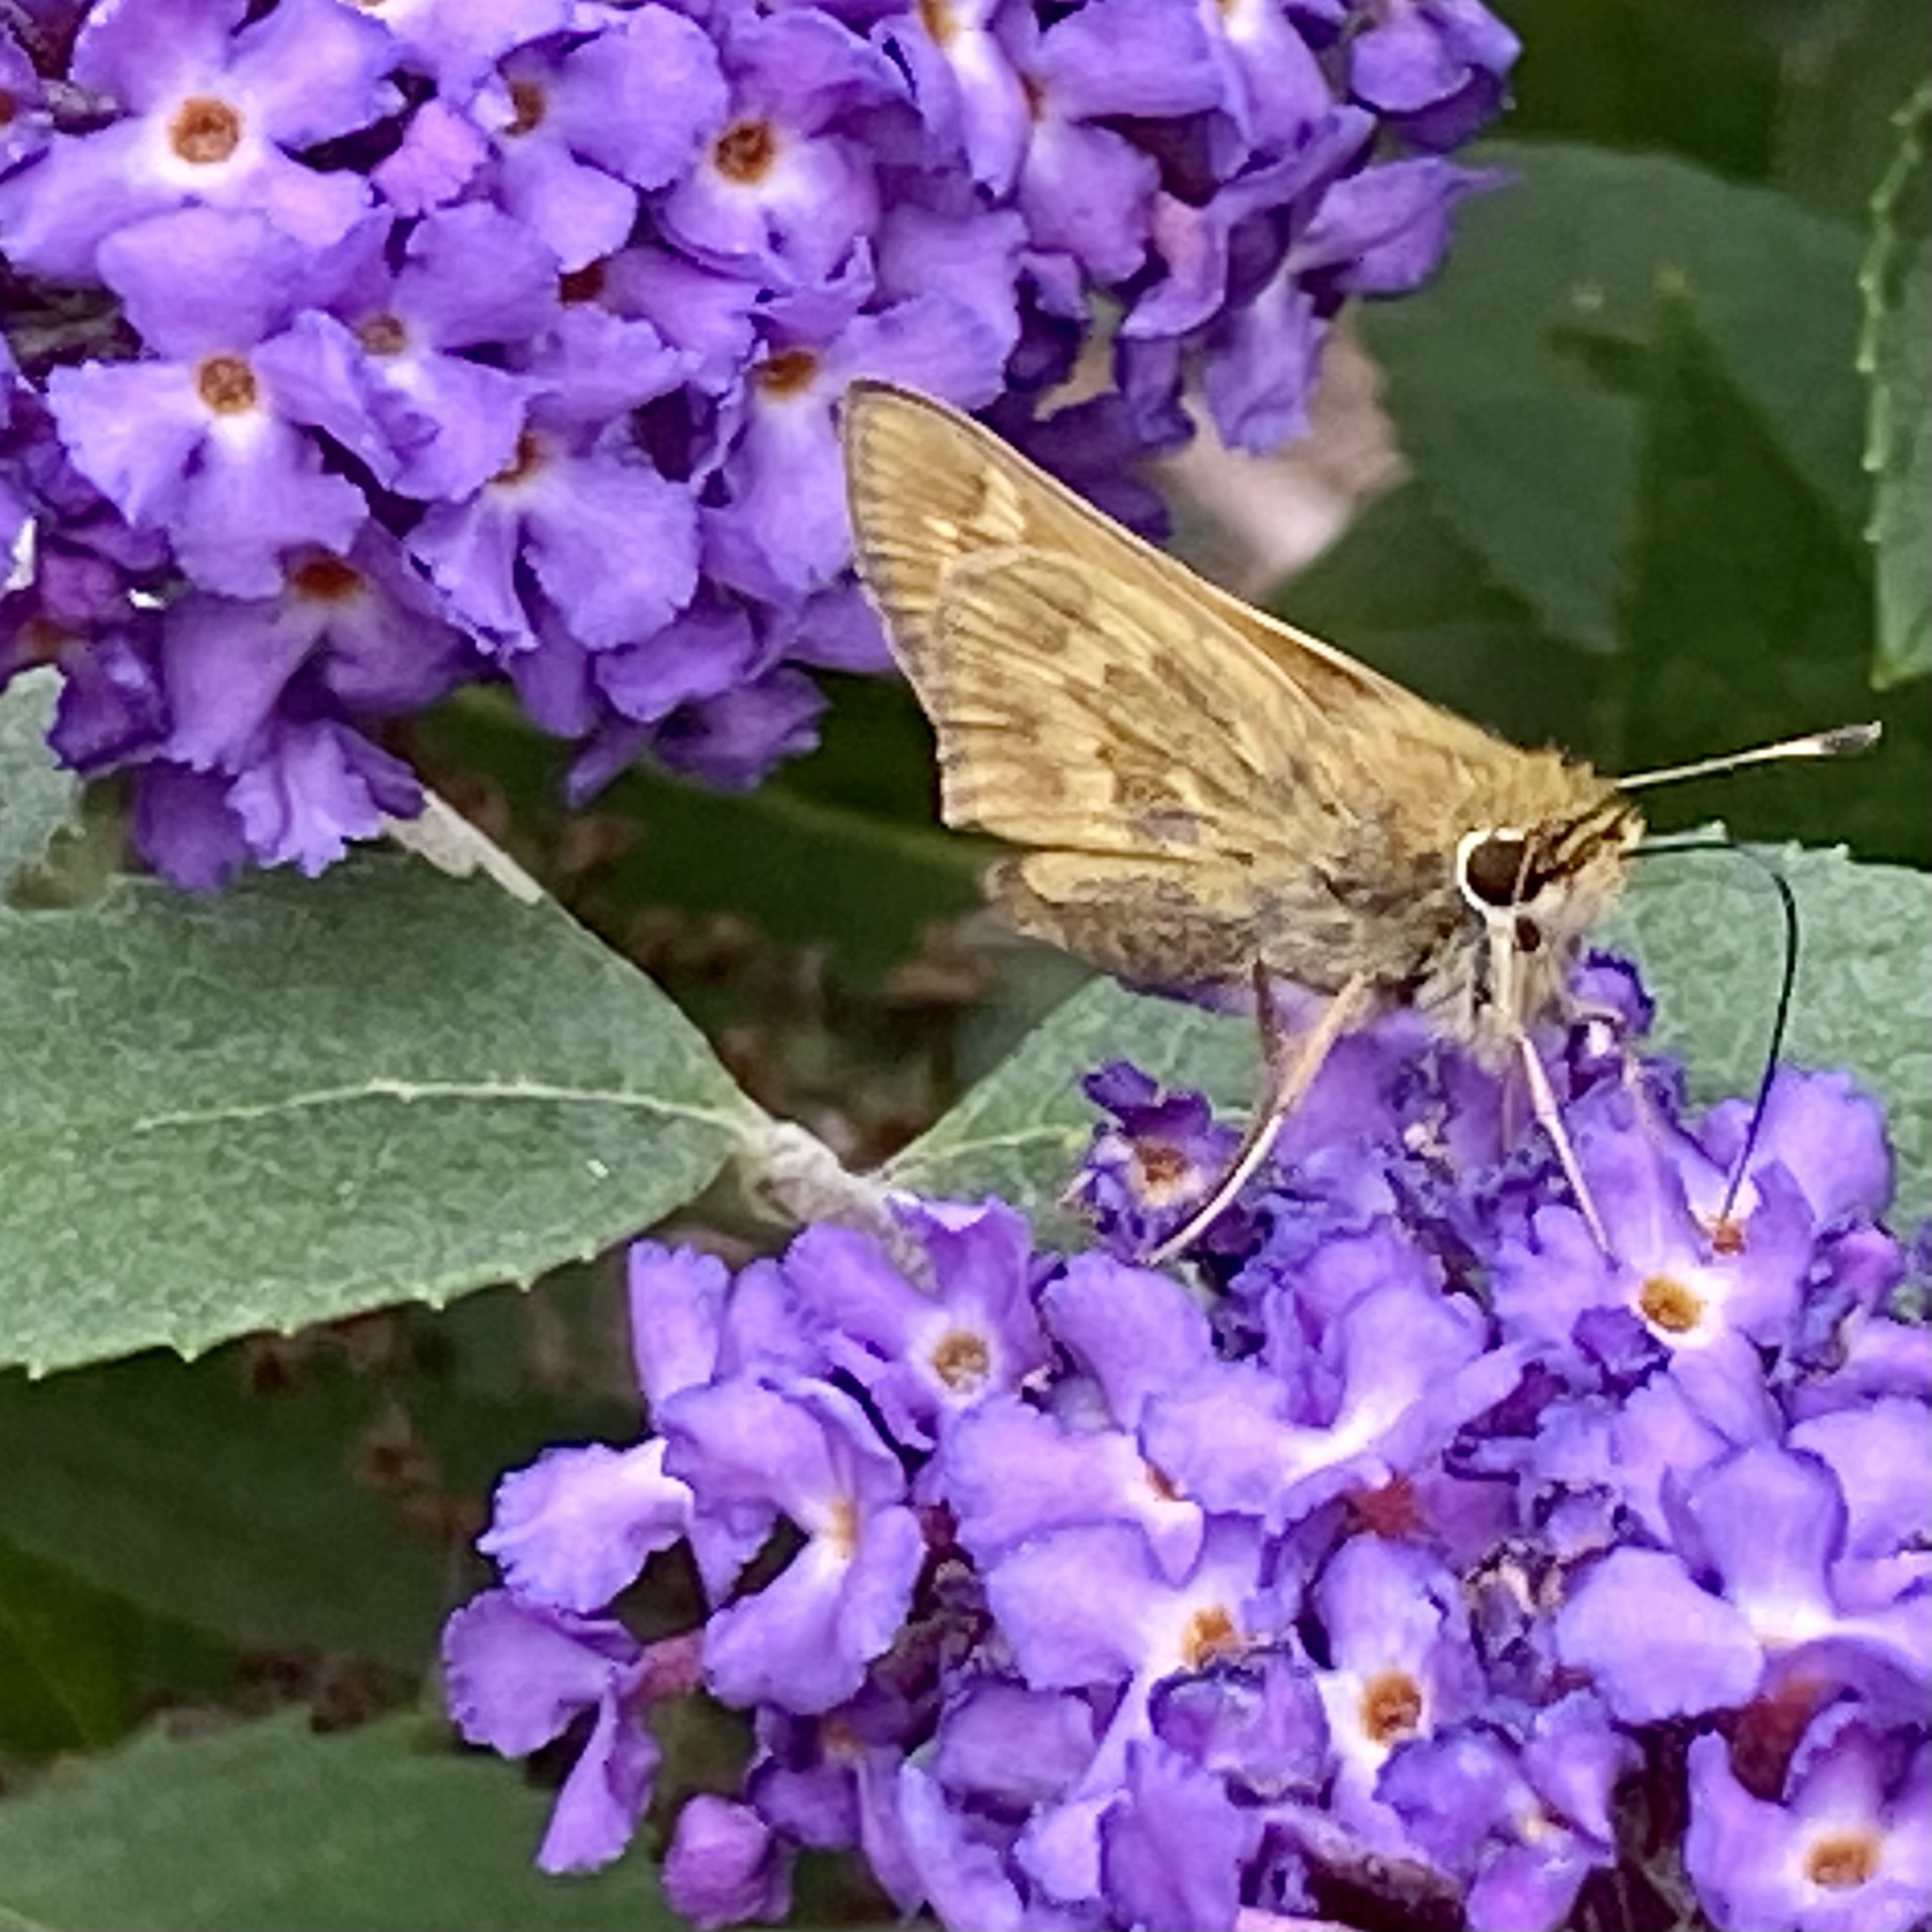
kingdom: Animalia
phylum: Arthropoda
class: Insecta
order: Lepidoptera
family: Hesperiidae
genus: Atalopedes
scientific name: Atalopedes
